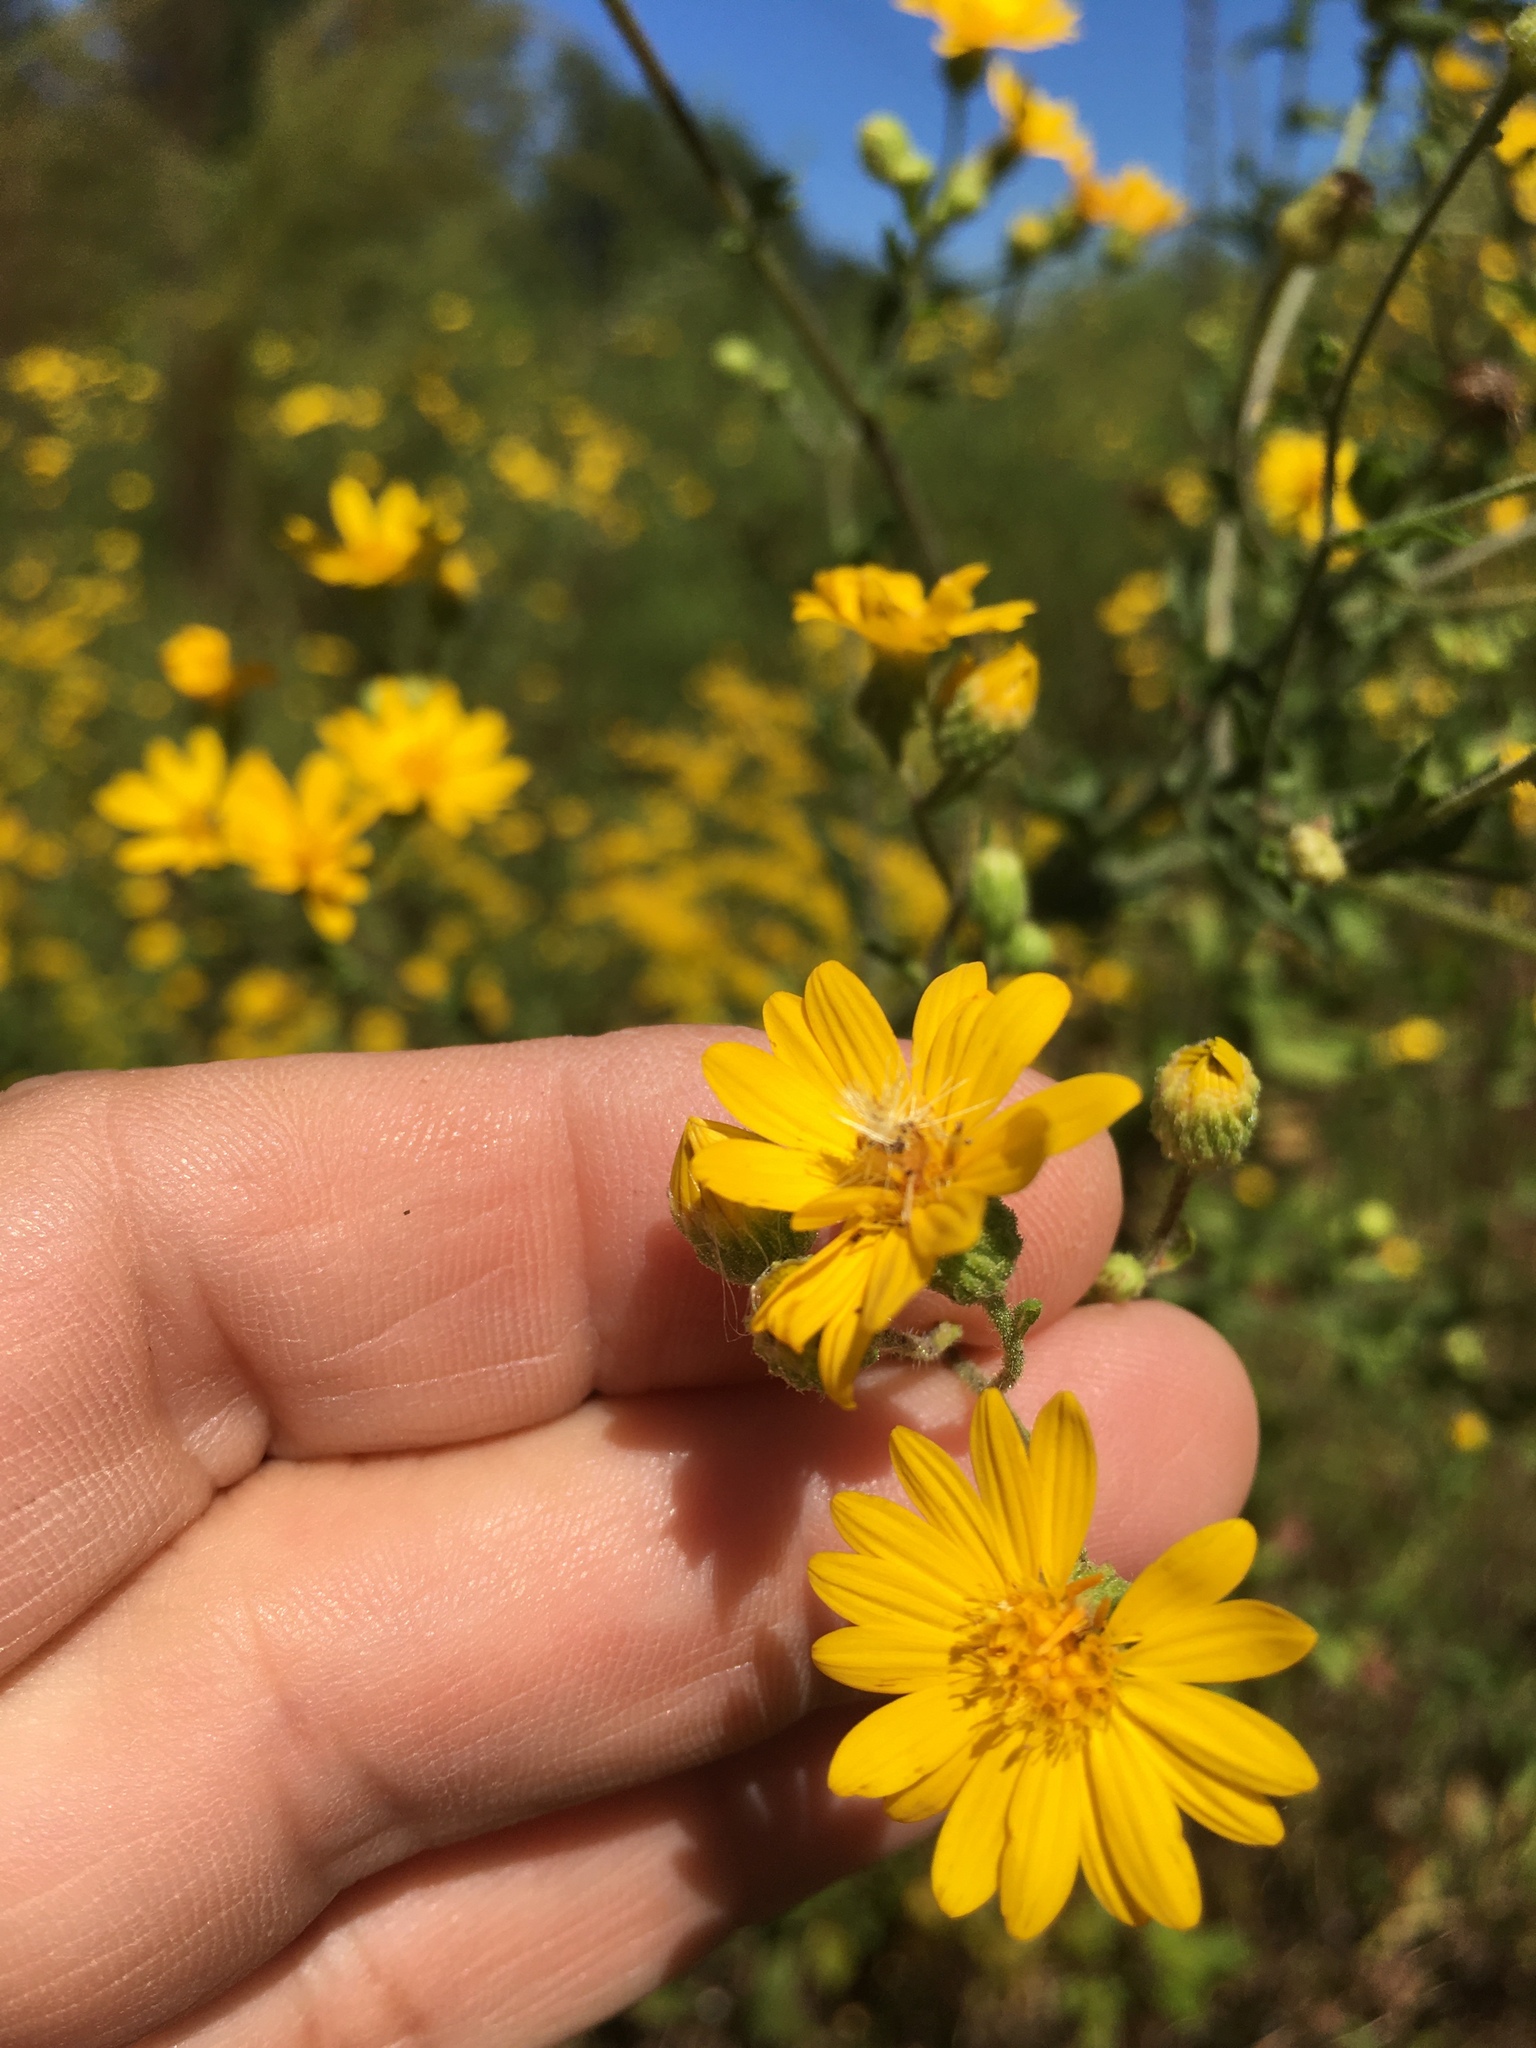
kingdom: Plantae
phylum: Tracheophyta
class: Magnoliopsida
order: Asterales
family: Asteraceae
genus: Heterotheca
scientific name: Heterotheca subaxillaris
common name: Camphorweed
